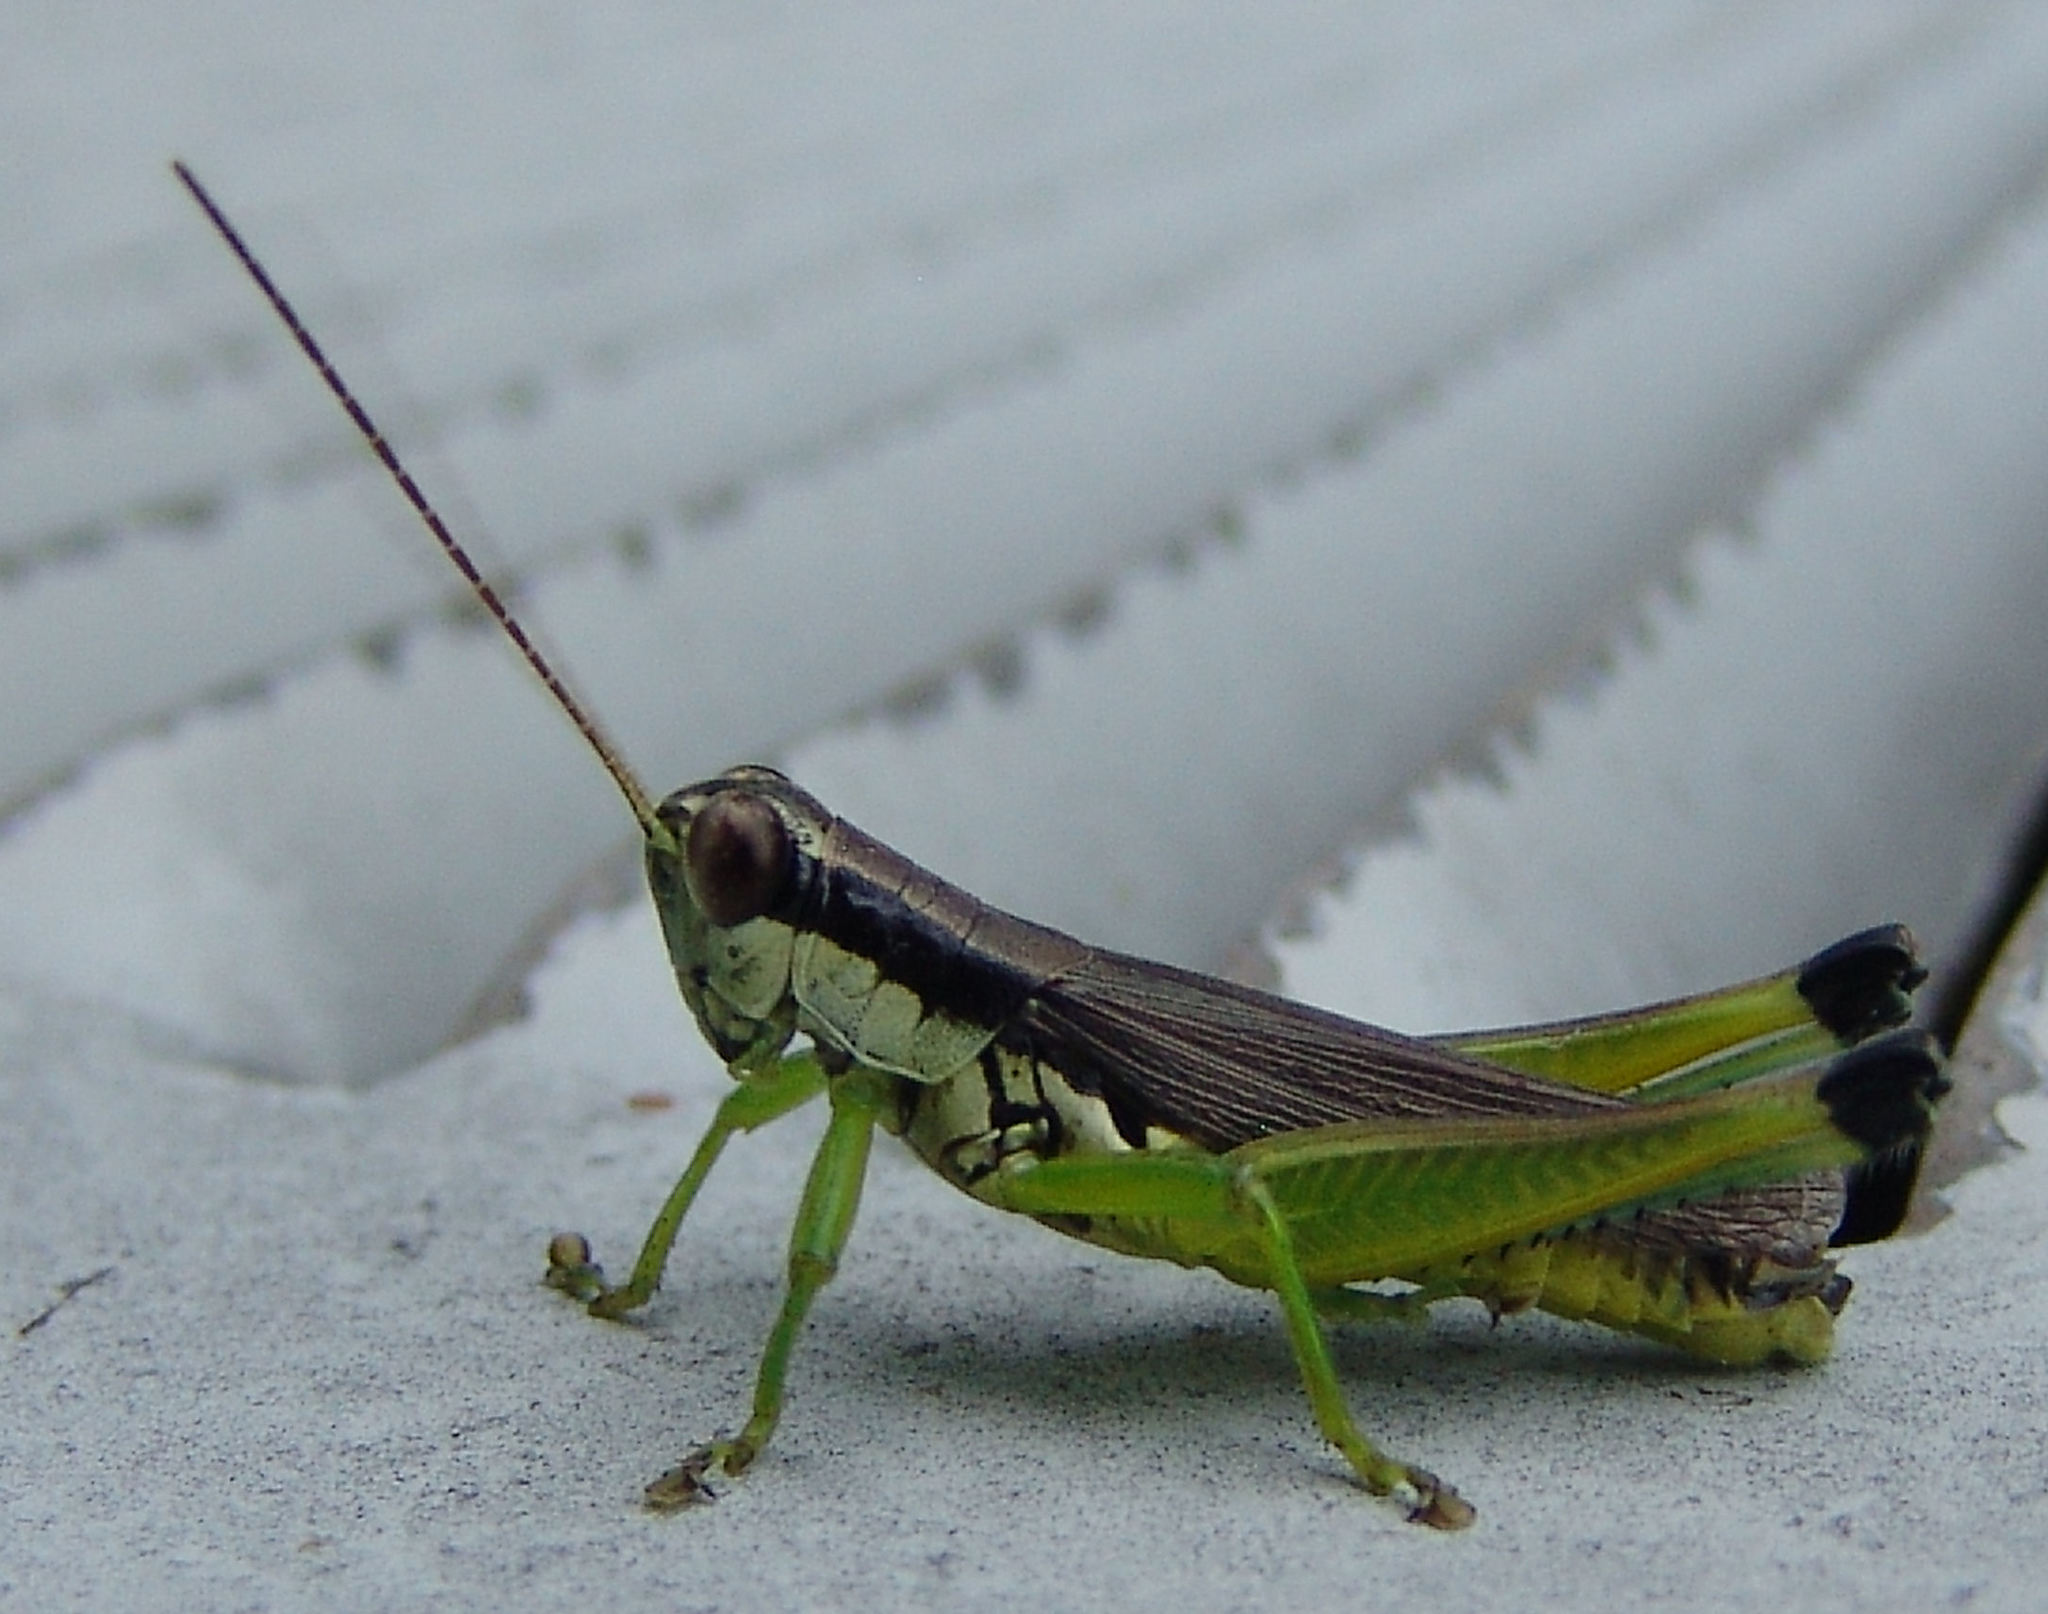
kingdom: Animalia
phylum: Arthropoda
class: Insecta
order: Orthoptera
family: Acrididae
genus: Paroxya
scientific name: Paroxya clavuligera
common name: Olive-green swamp grasshopper
